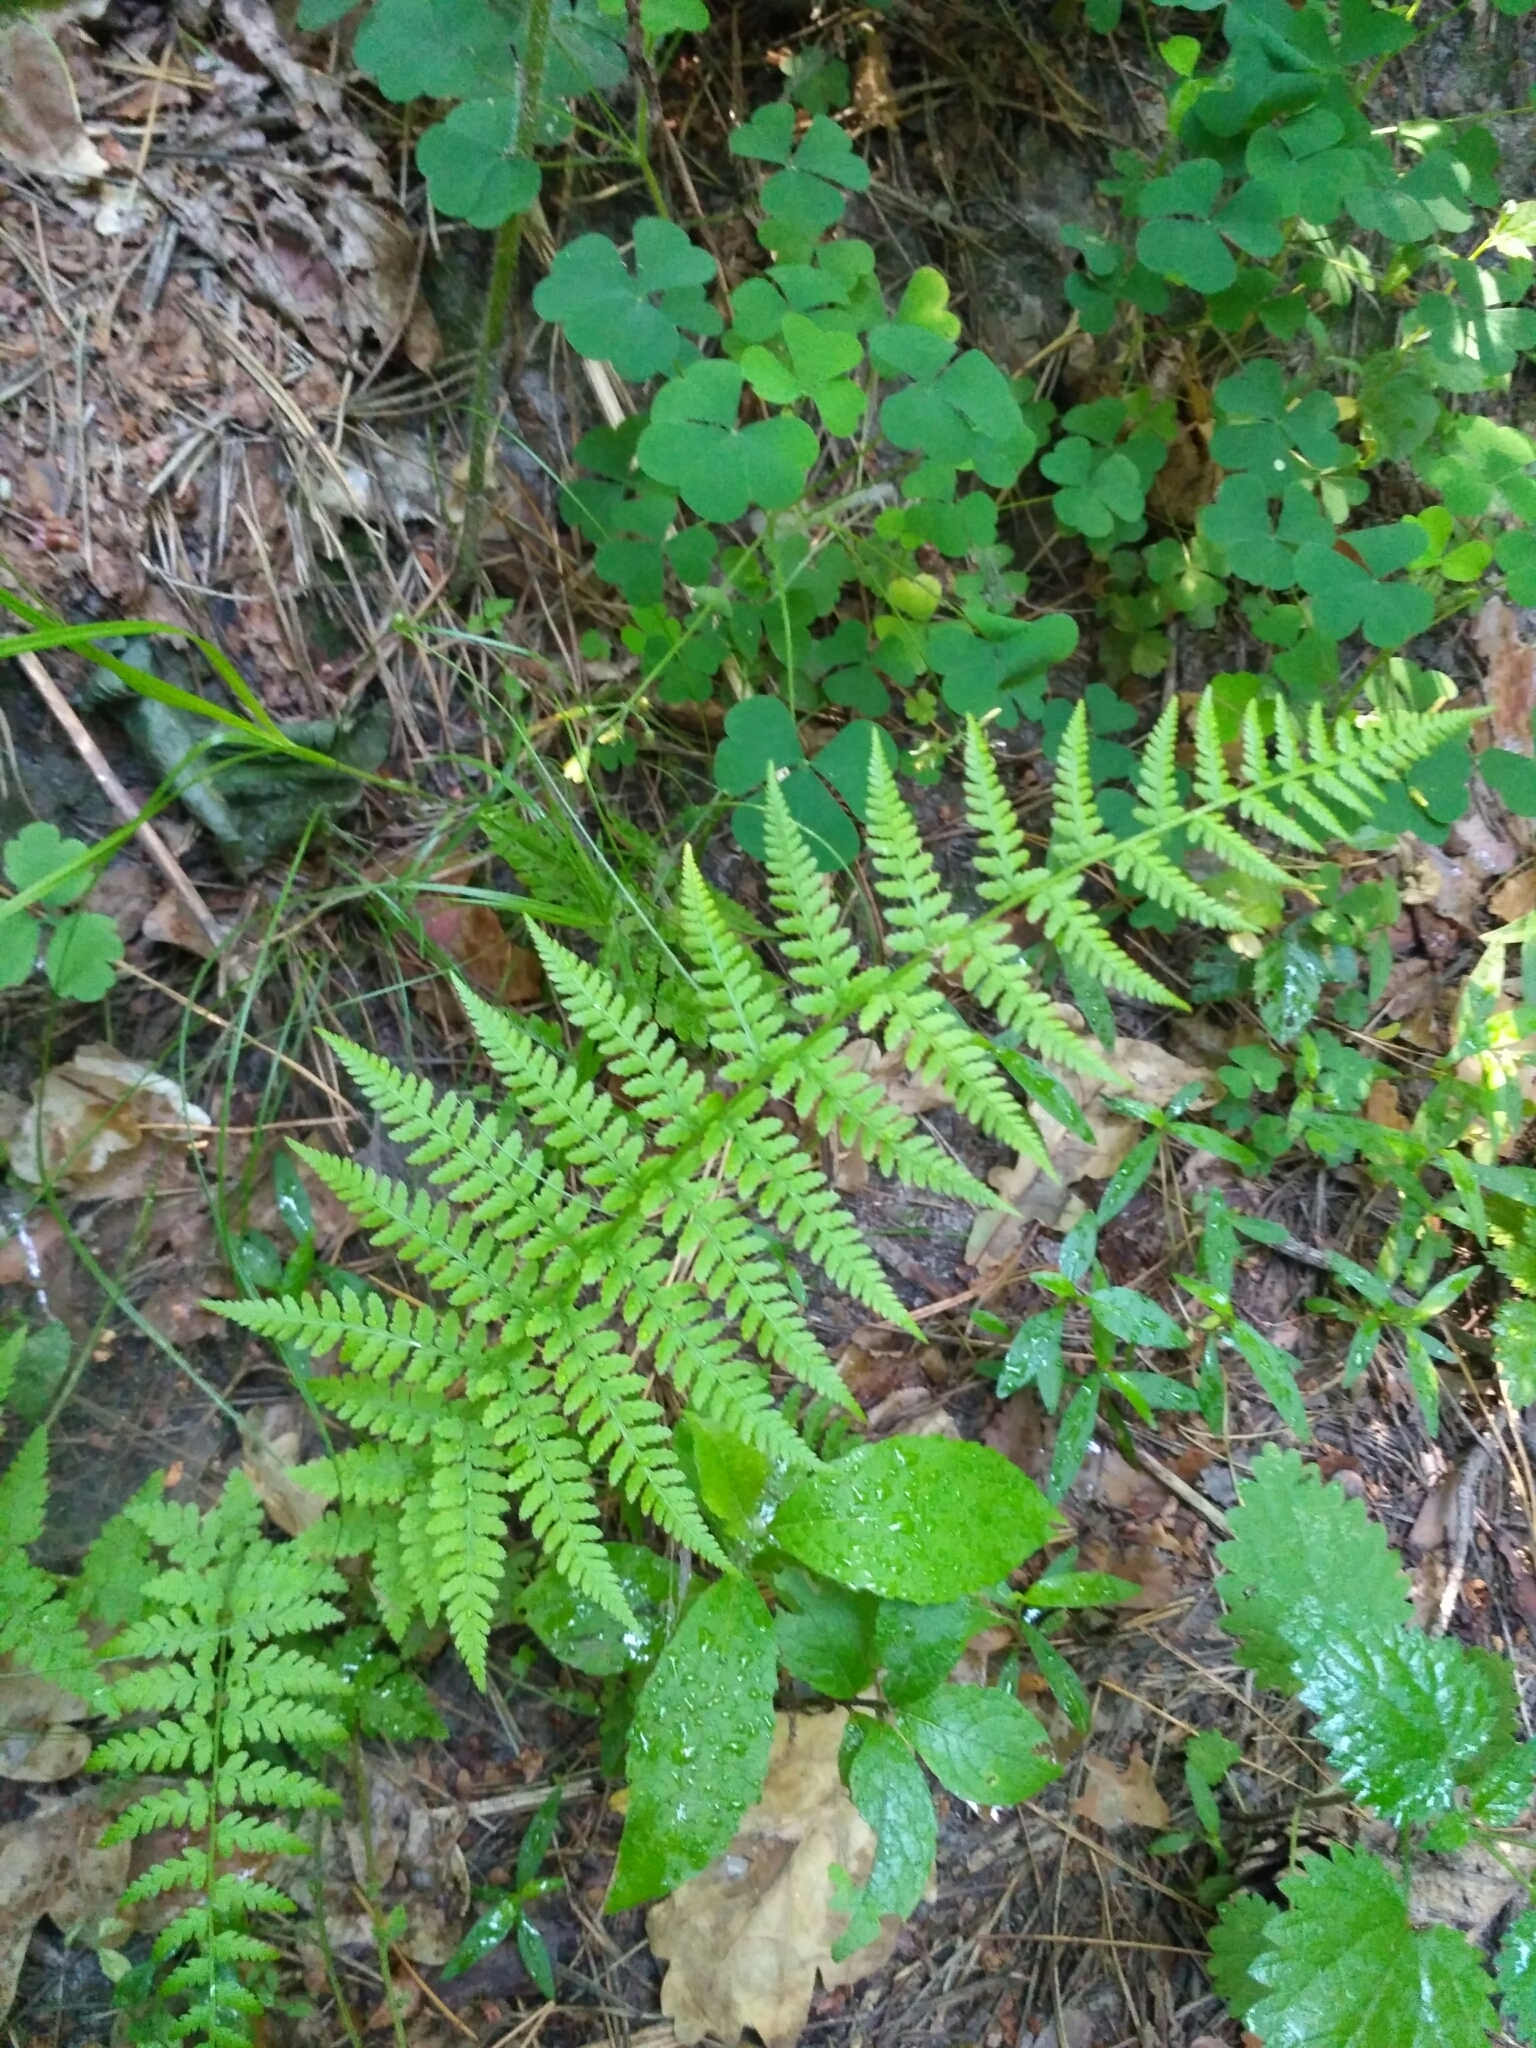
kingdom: Plantae
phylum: Tracheophyta
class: Polypodiopsida
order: Polypodiales
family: Athyriaceae
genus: Athyrium
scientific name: Athyrium filix-femina
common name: Lady fern
